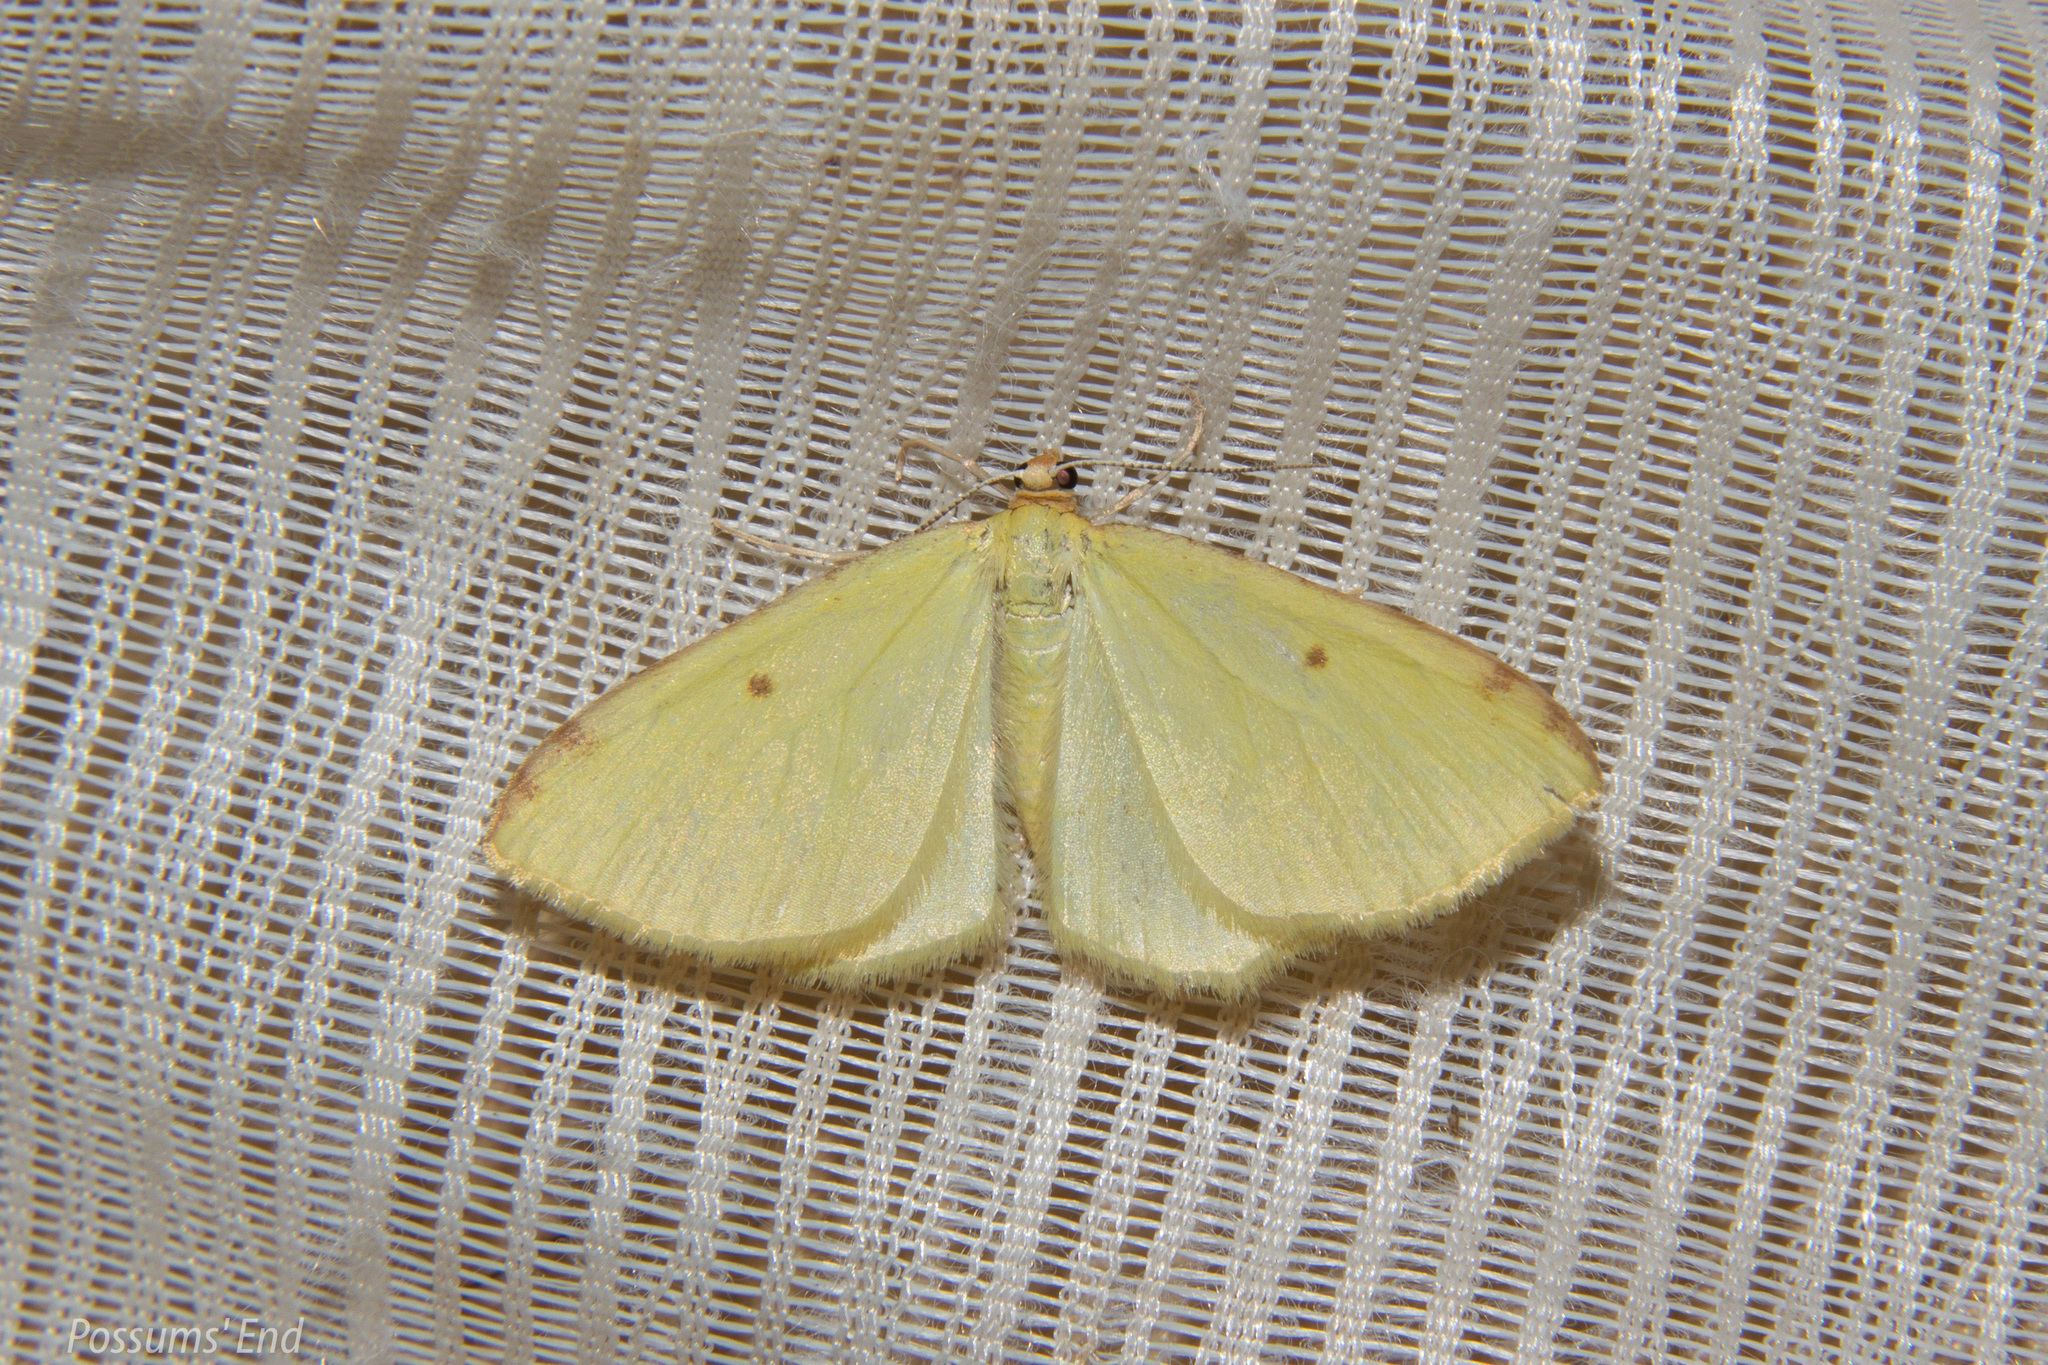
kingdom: Animalia
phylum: Arthropoda
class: Insecta
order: Lepidoptera
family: Geometridae
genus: Epiphryne
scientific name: Epiphryne undosata
